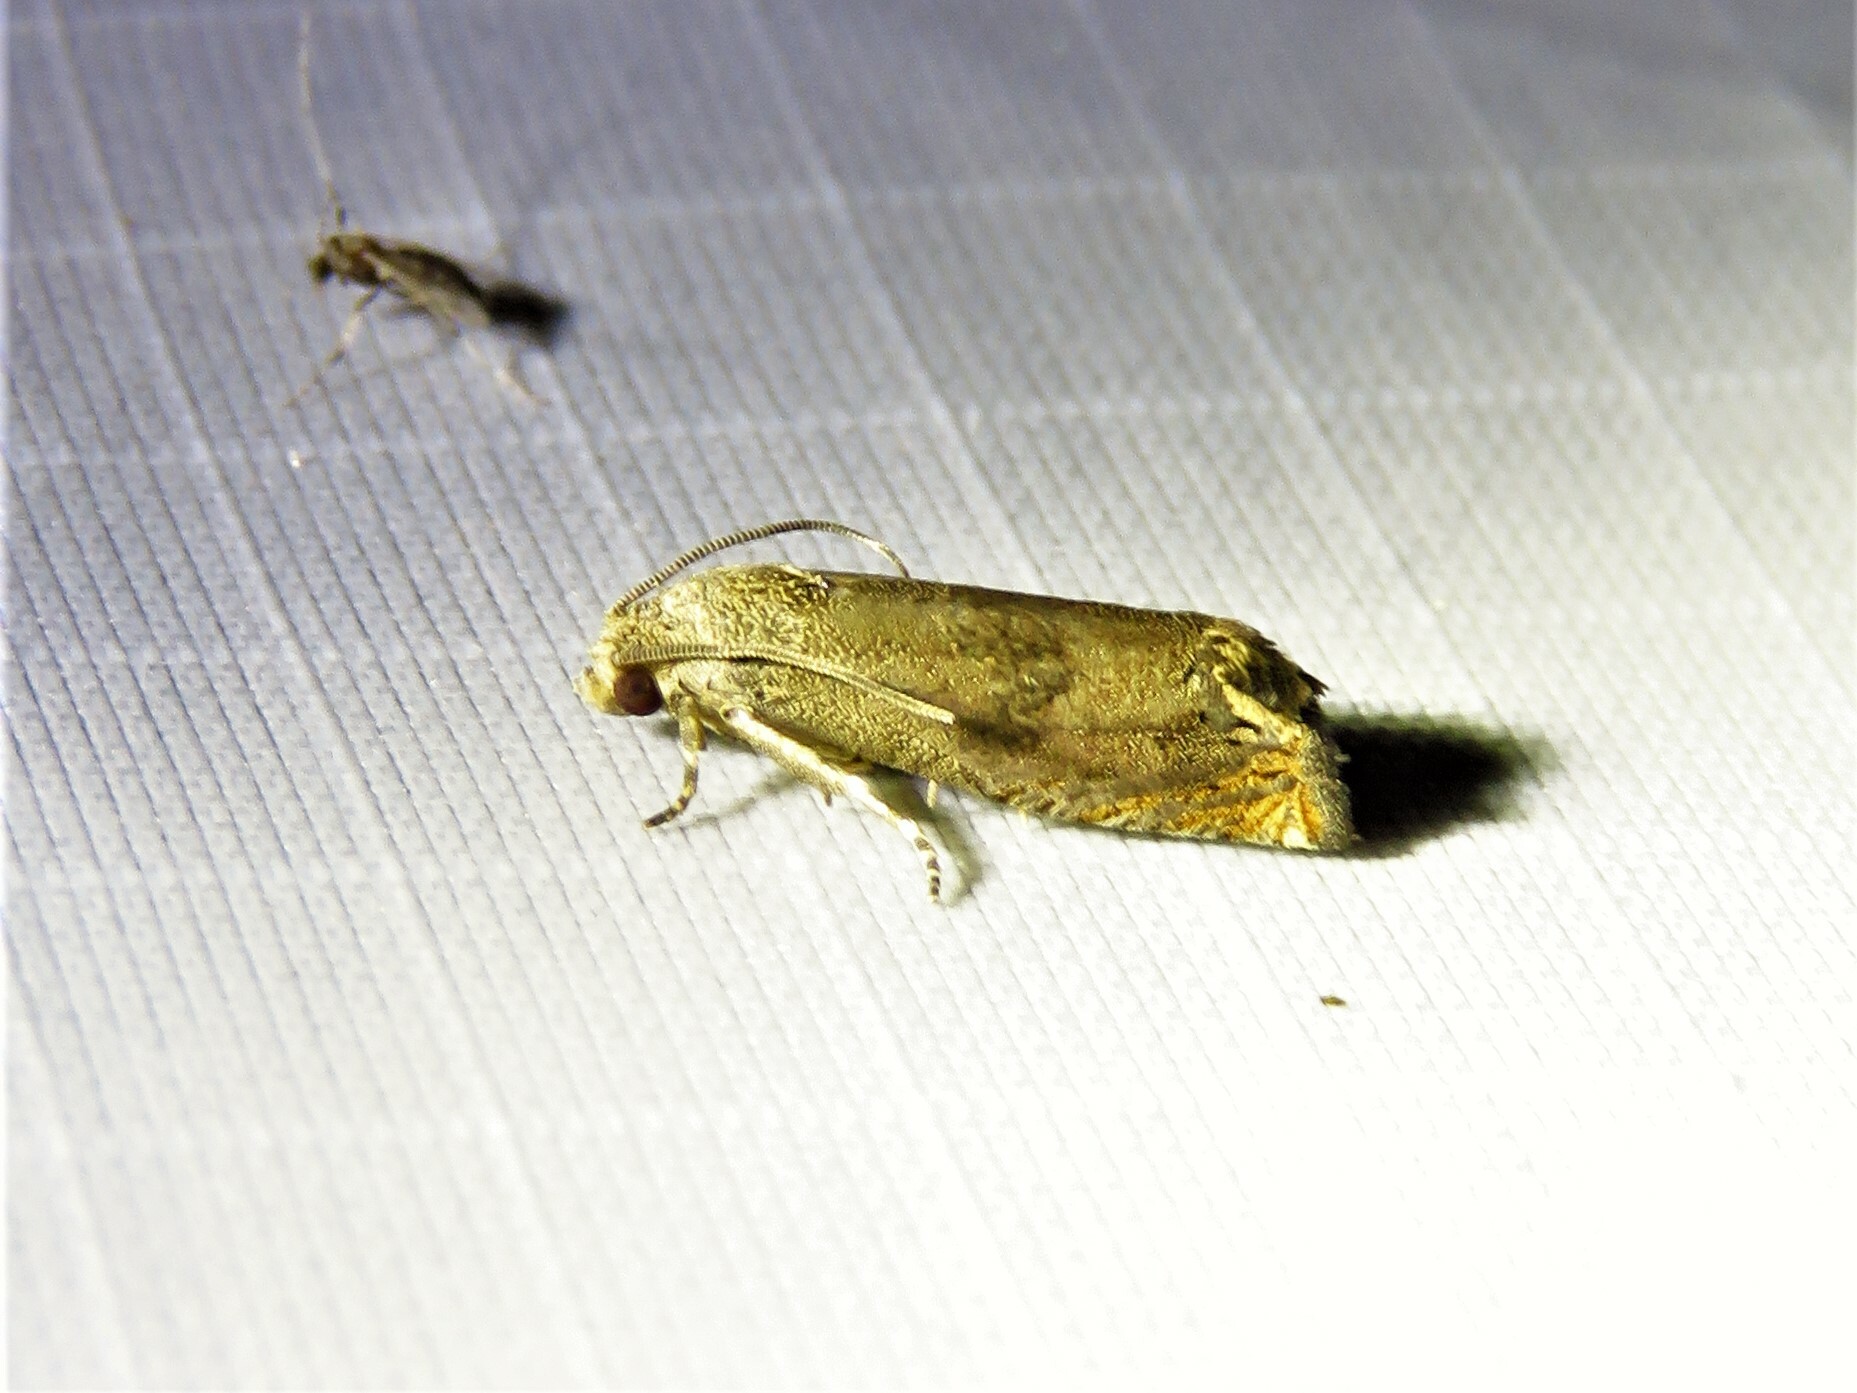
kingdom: Animalia
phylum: Arthropoda
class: Insecta
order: Lepidoptera
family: Tortricidae
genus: Epiblema
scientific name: Epiblema strenuana
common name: Ragweed borer moth
